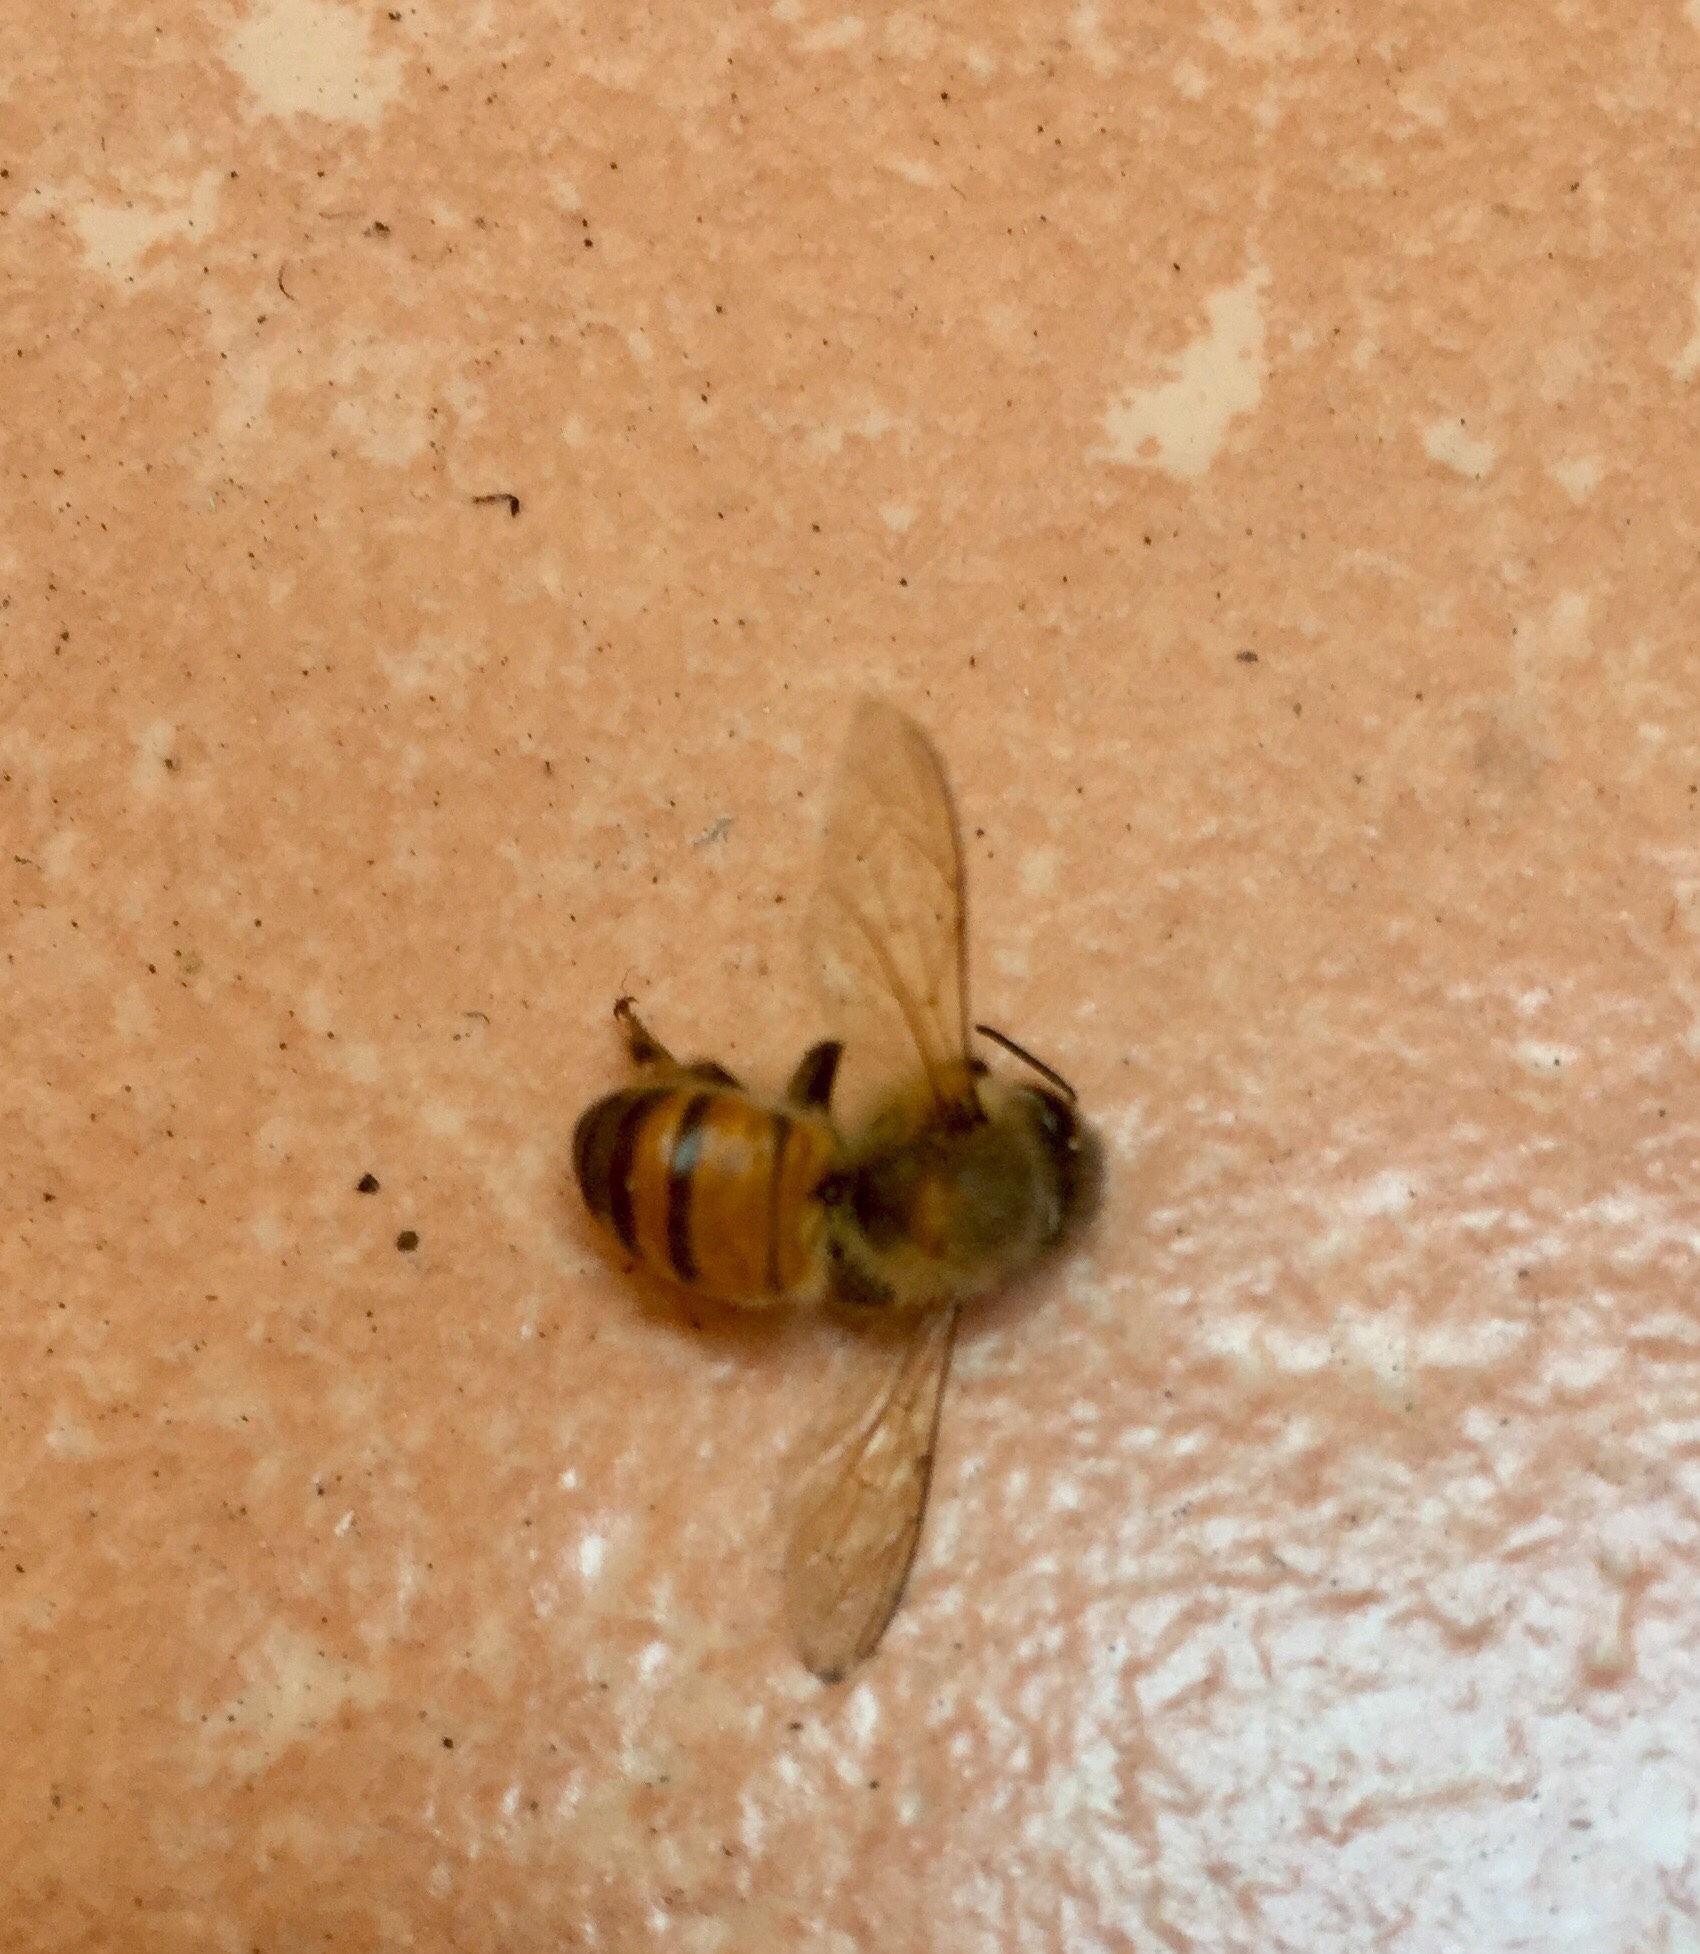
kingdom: Animalia
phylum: Arthropoda
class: Insecta
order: Hymenoptera
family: Apidae
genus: Apis
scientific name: Apis mellifera
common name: Honey bee
